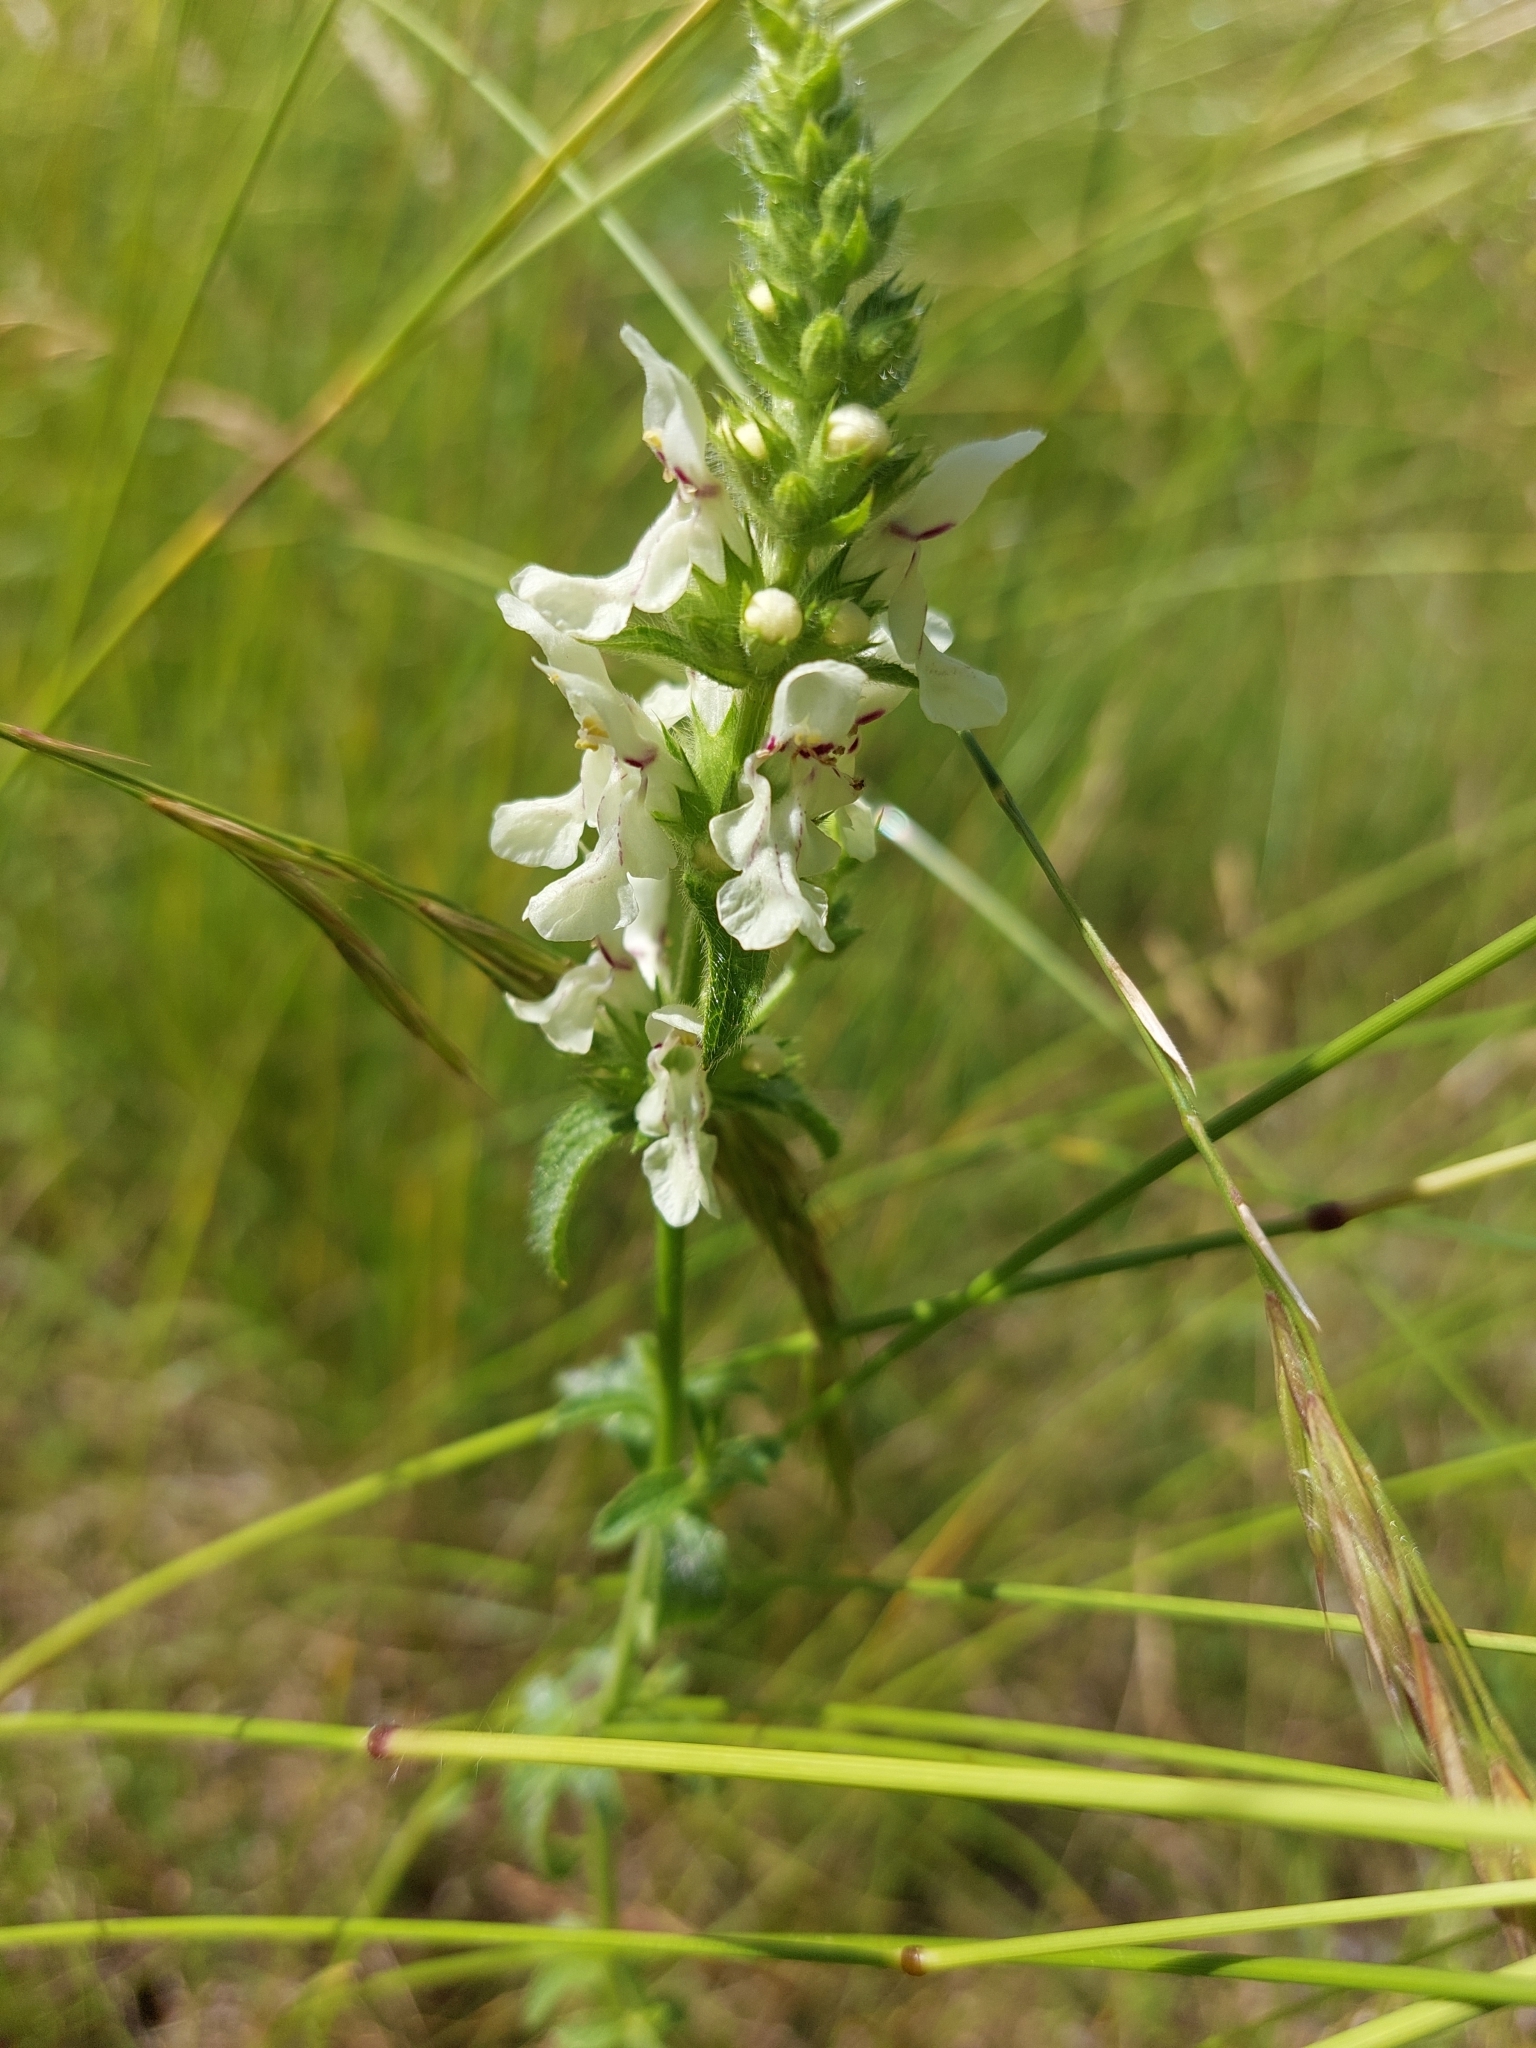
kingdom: Plantae
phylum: Tracheophyta
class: Magnoliopsida
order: Lamiales
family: Lamiaceae
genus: Stachys
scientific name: Stachys recta
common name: Perennial yellow-woundwort
